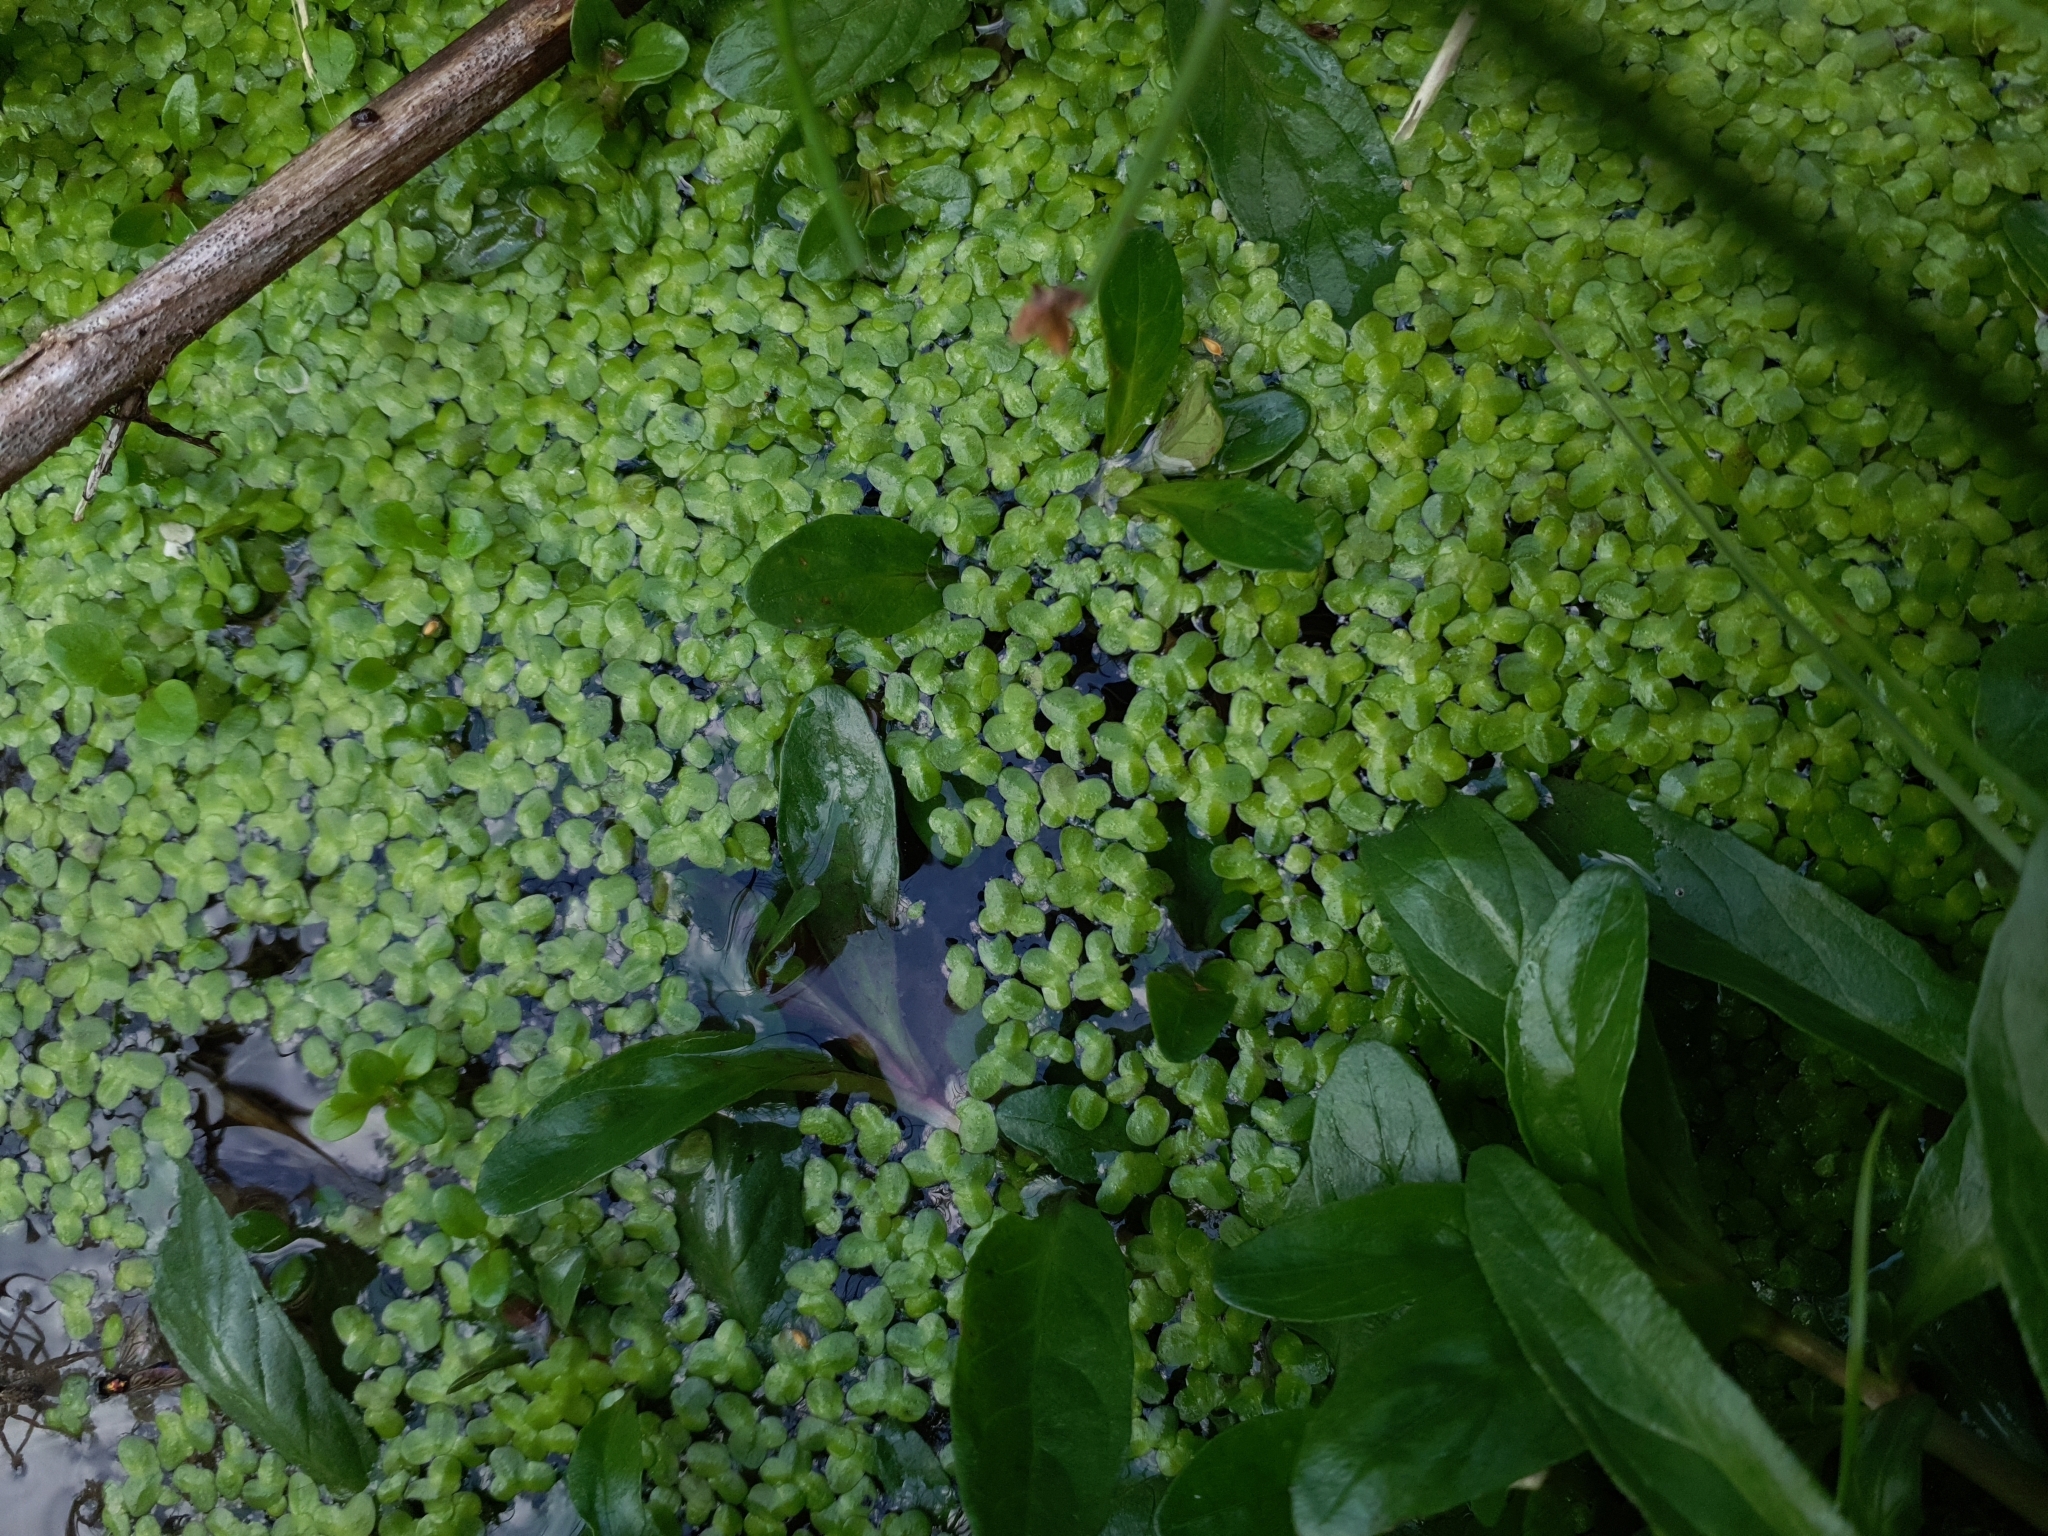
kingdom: Plantae
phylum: Tracheophyta
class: Liliopsida
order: Alismatales
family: Araceae
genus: Lemna
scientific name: Lemna minor
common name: Common duckweed
